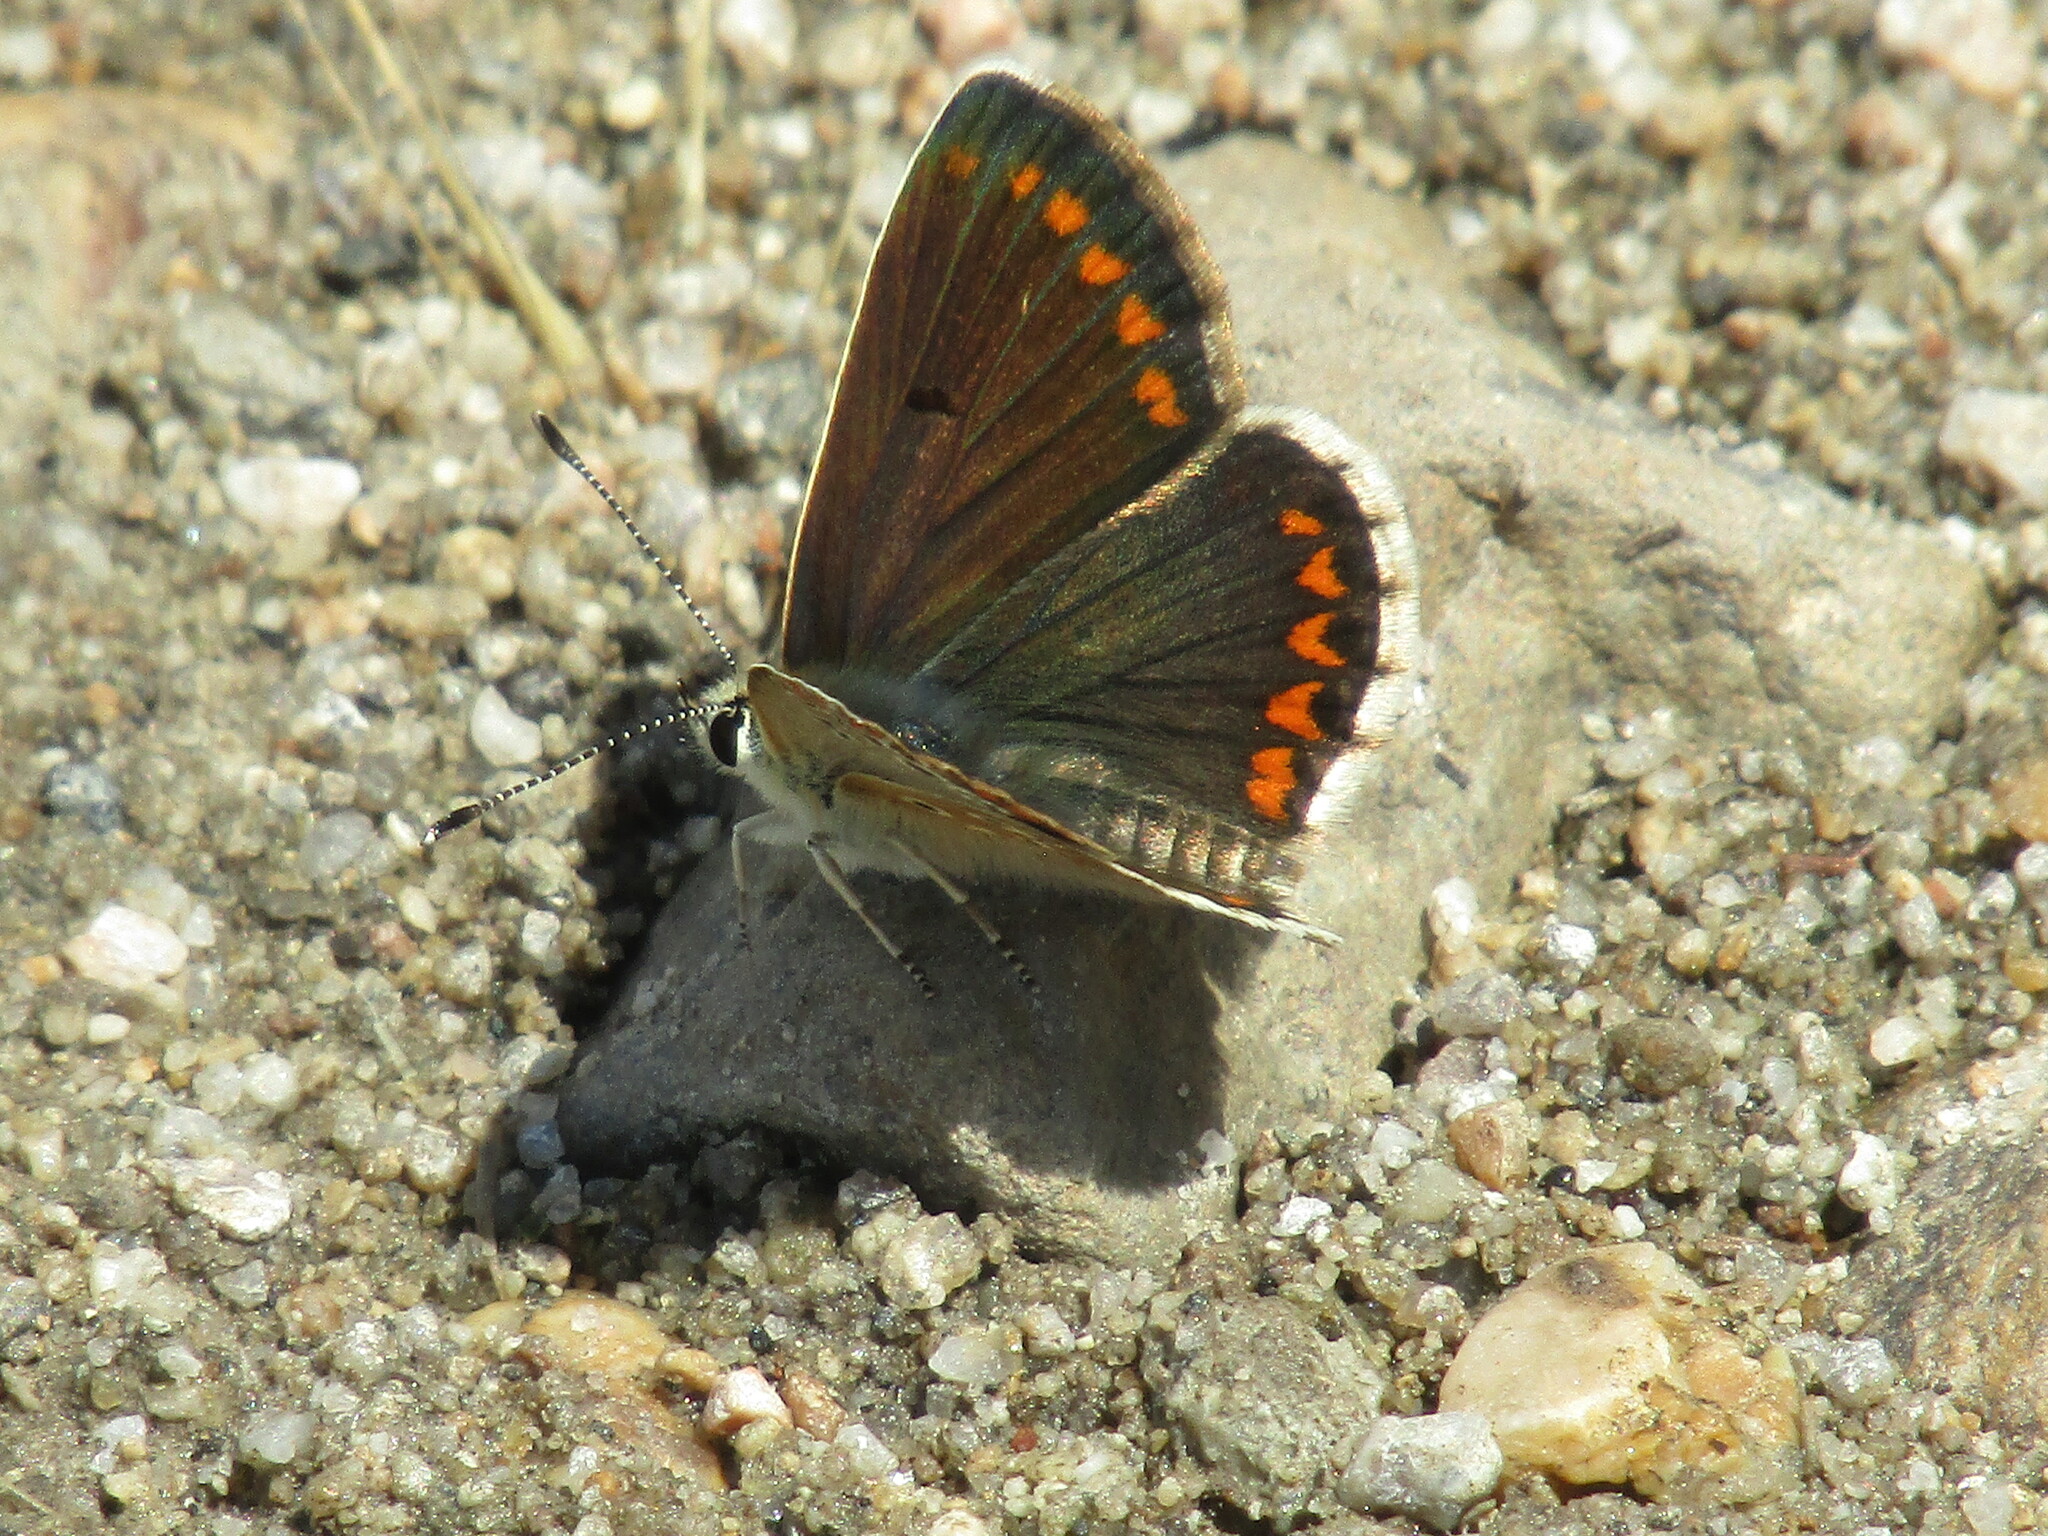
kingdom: Animalia
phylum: Arthropoda
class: Insecta
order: Lepidoptera
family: Lycaenidae
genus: Aricia
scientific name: Aricia agestis
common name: Brown argus
